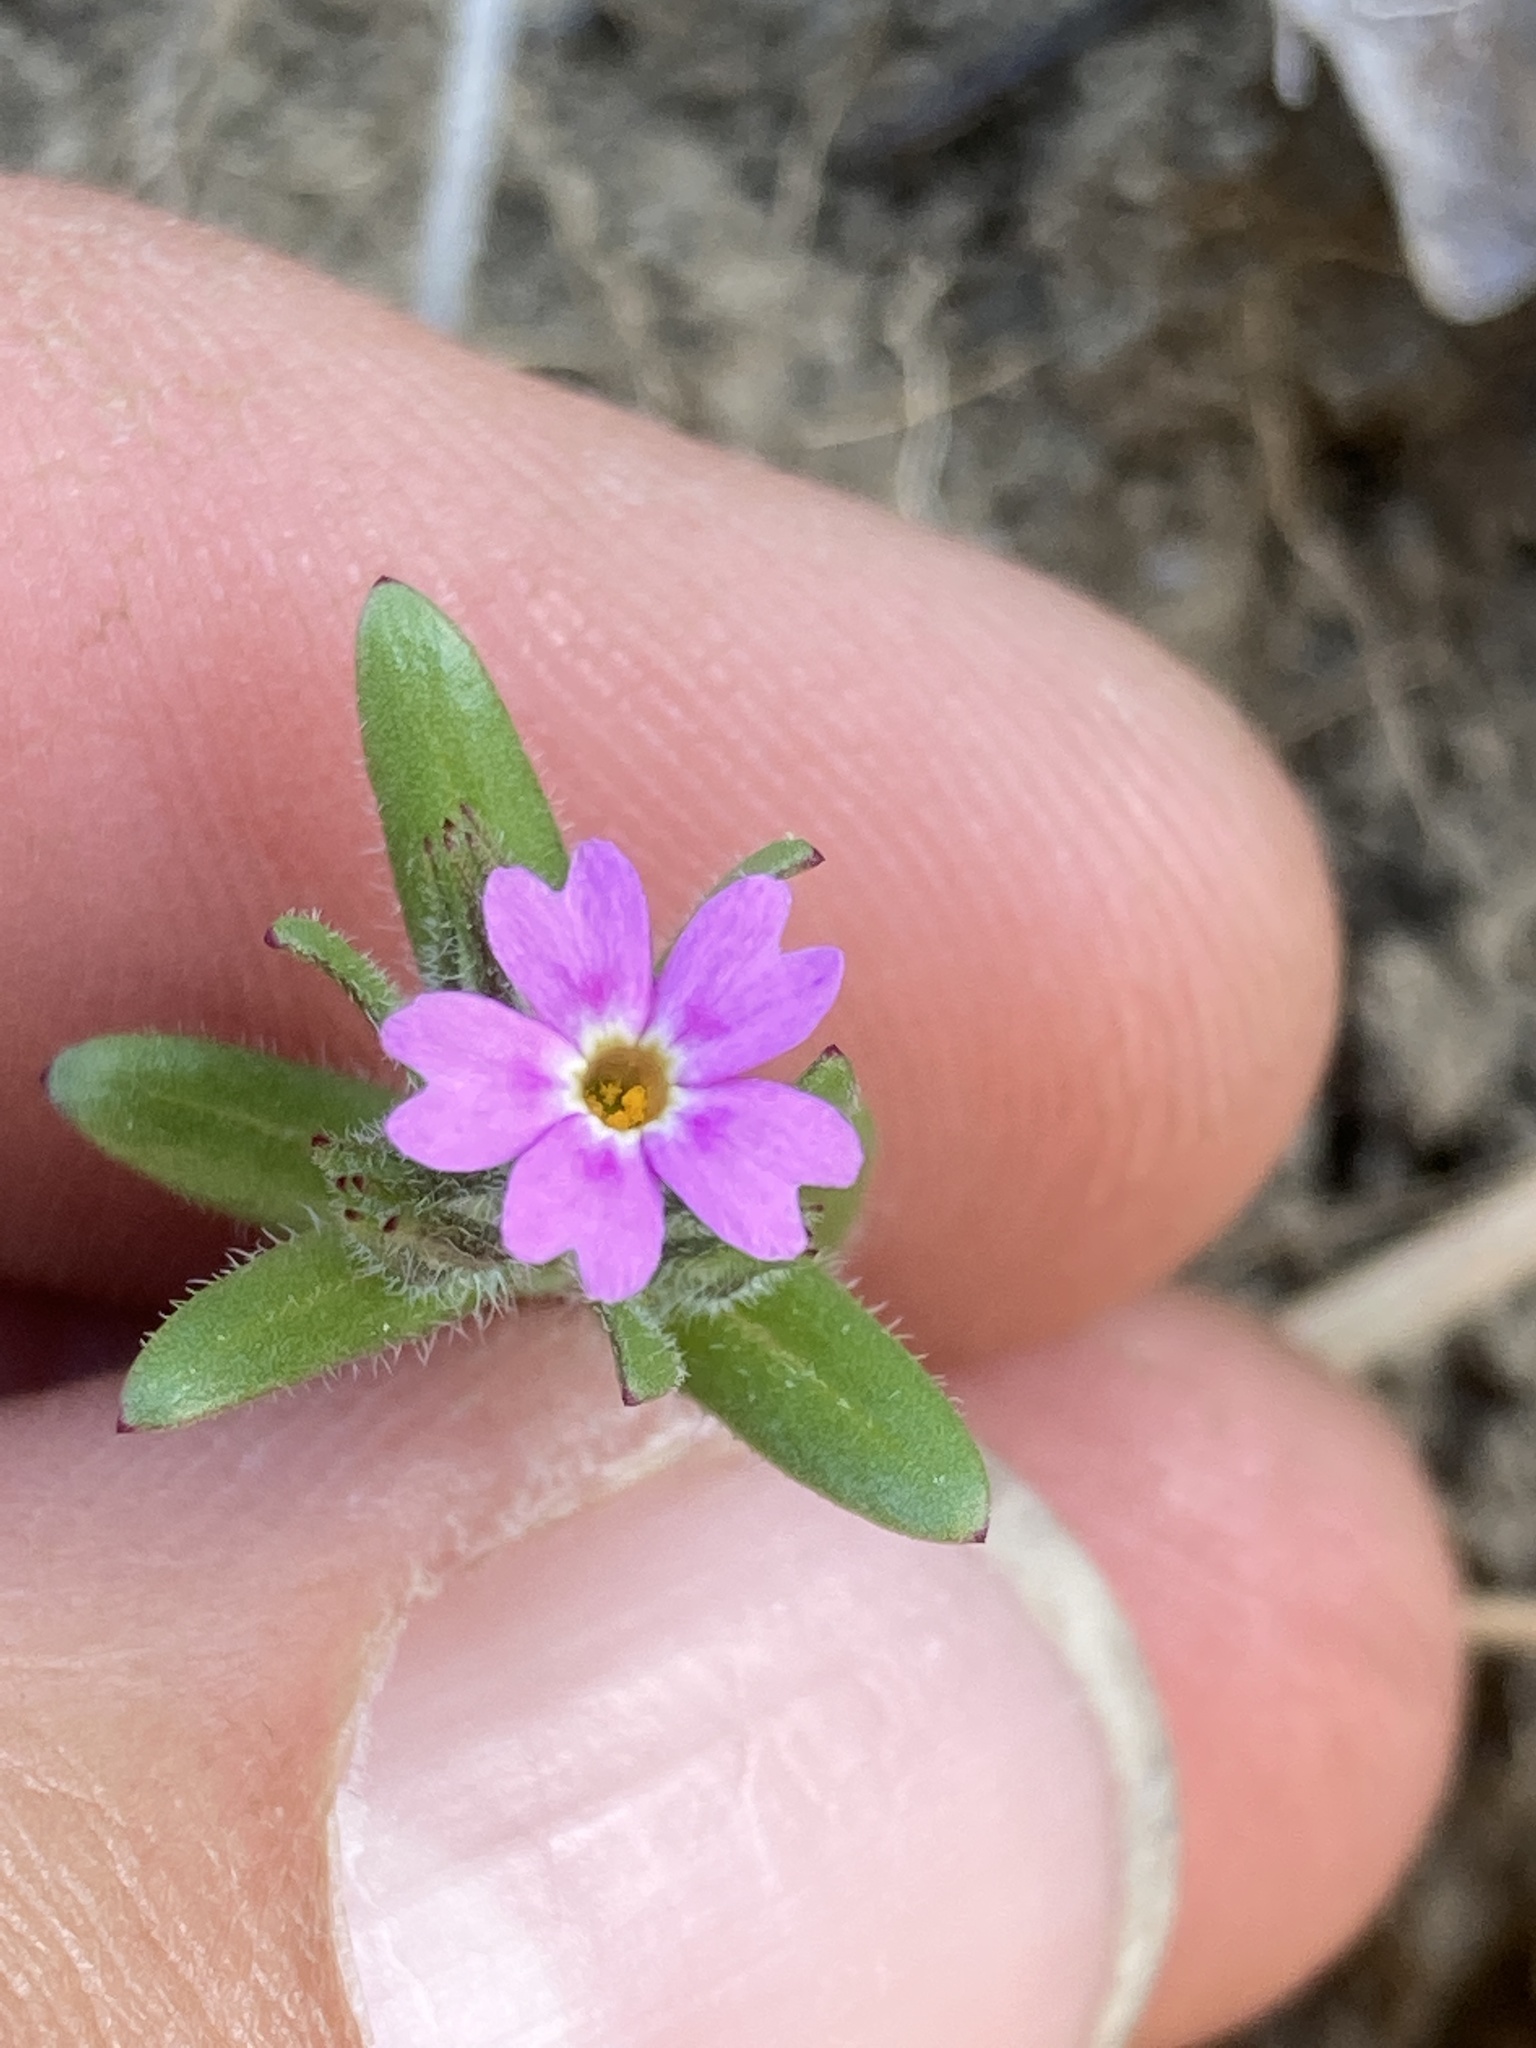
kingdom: Plantae
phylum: Tracheophyta
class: Magnoliopsida
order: Ericales
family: Polemoniaceae
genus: Phlox
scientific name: Phlox gracilis
